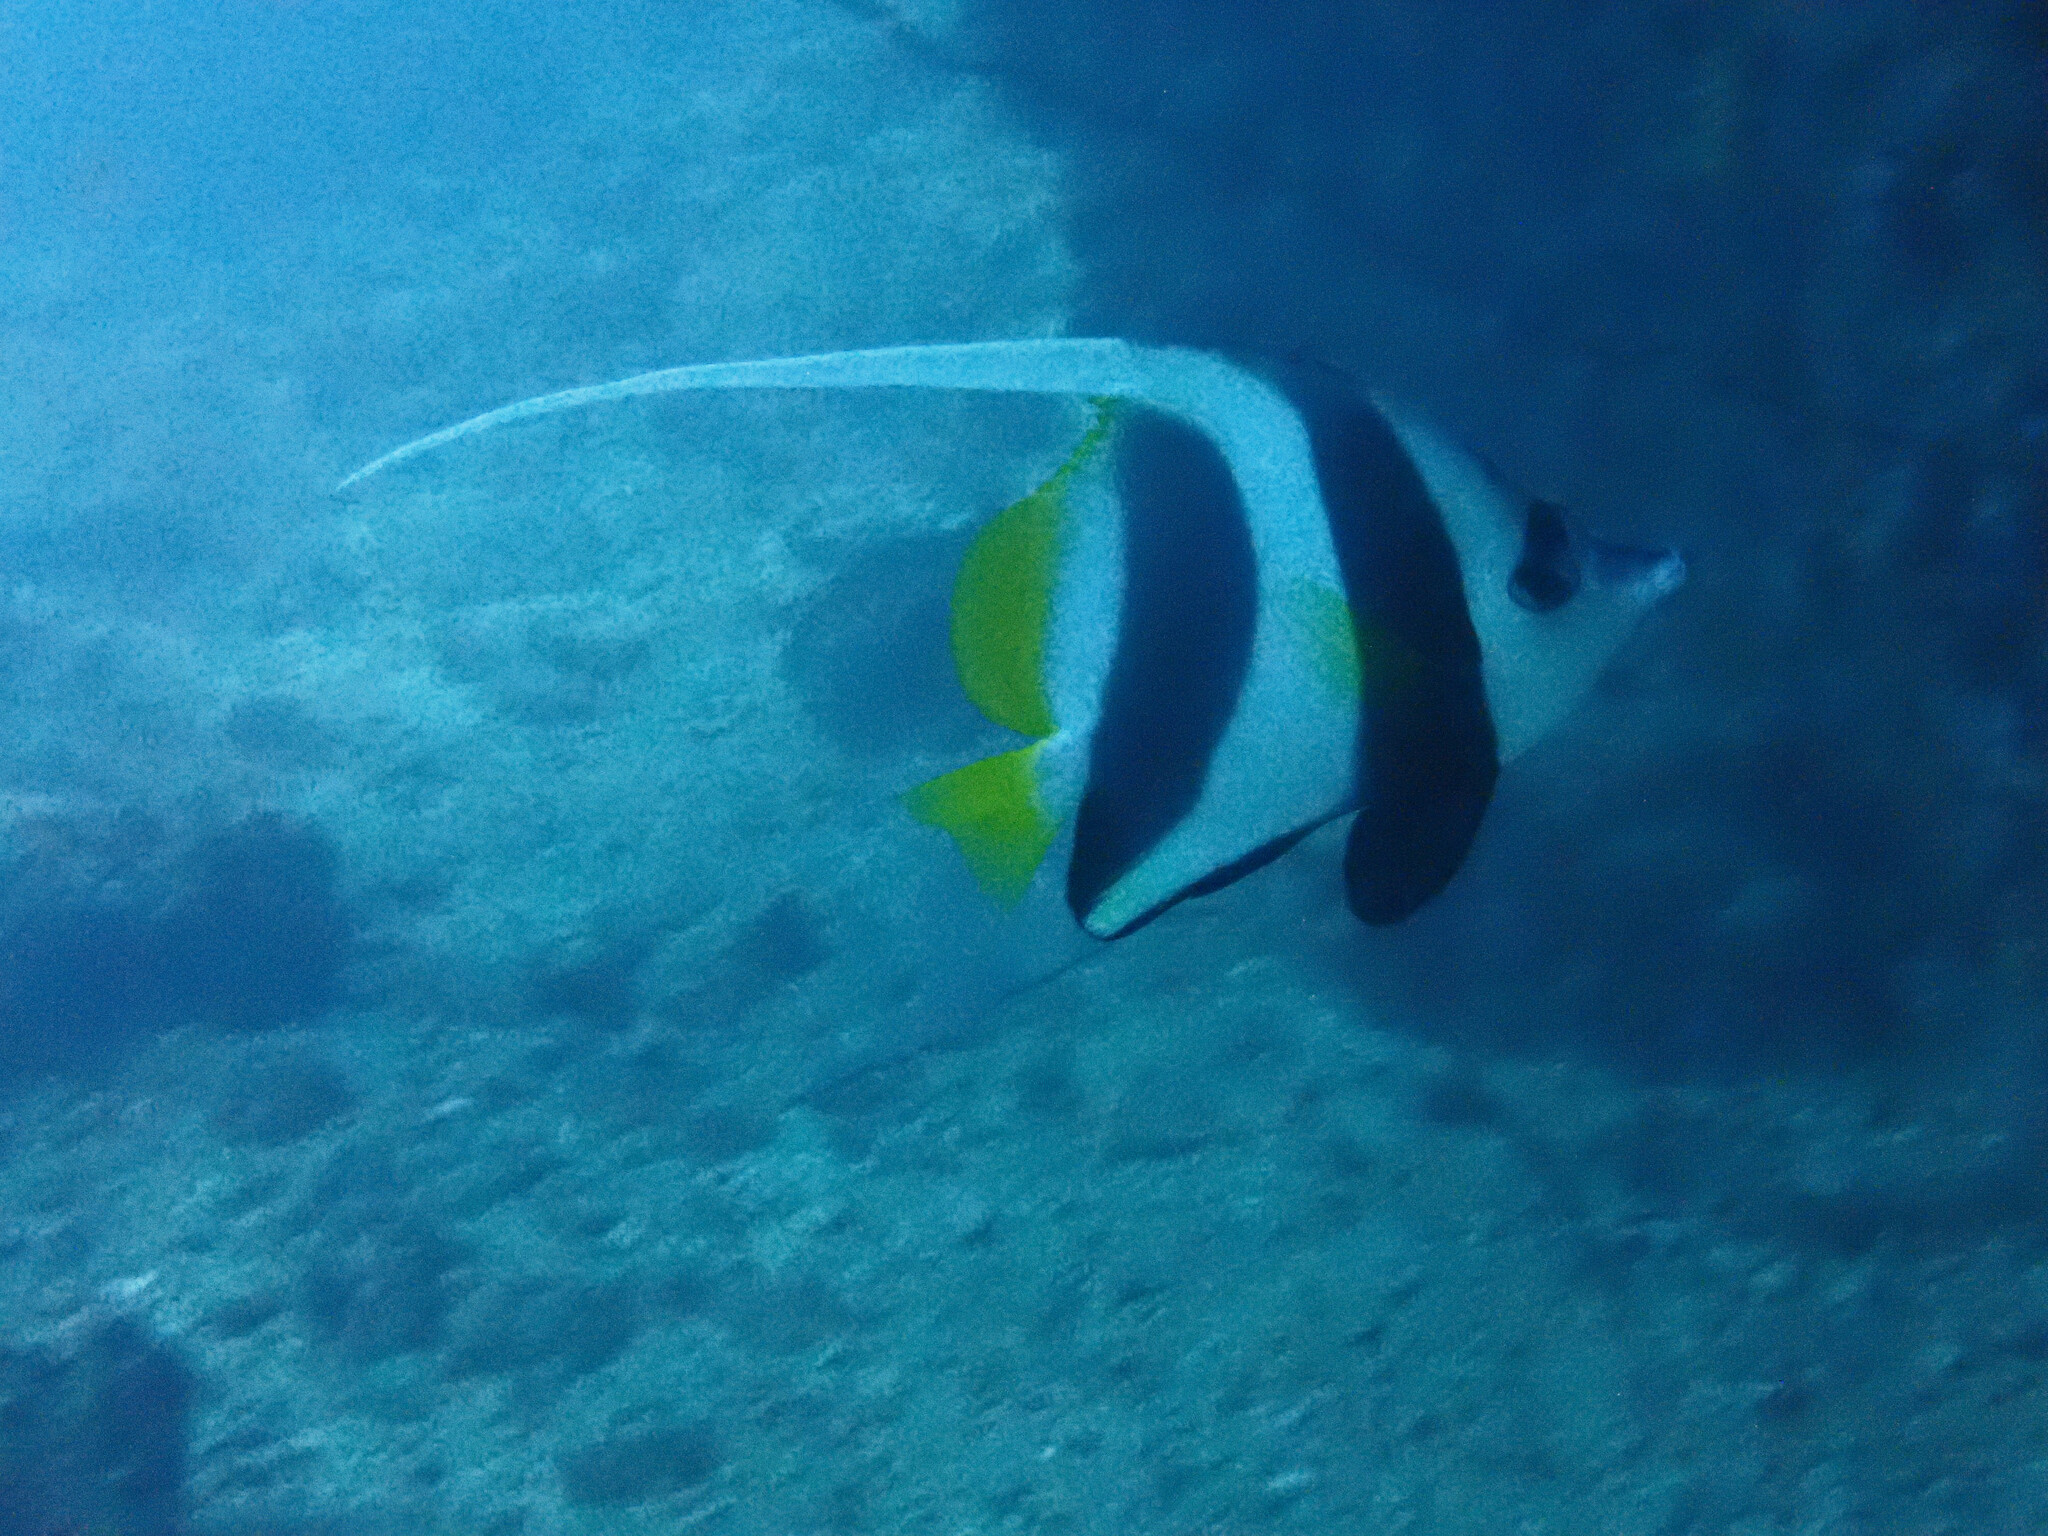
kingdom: Animalia
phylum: Chordata
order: Perciformes
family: Chaetodontidae
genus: Heniochus
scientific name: Heniochus acuminatus
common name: Pennant coralfish
